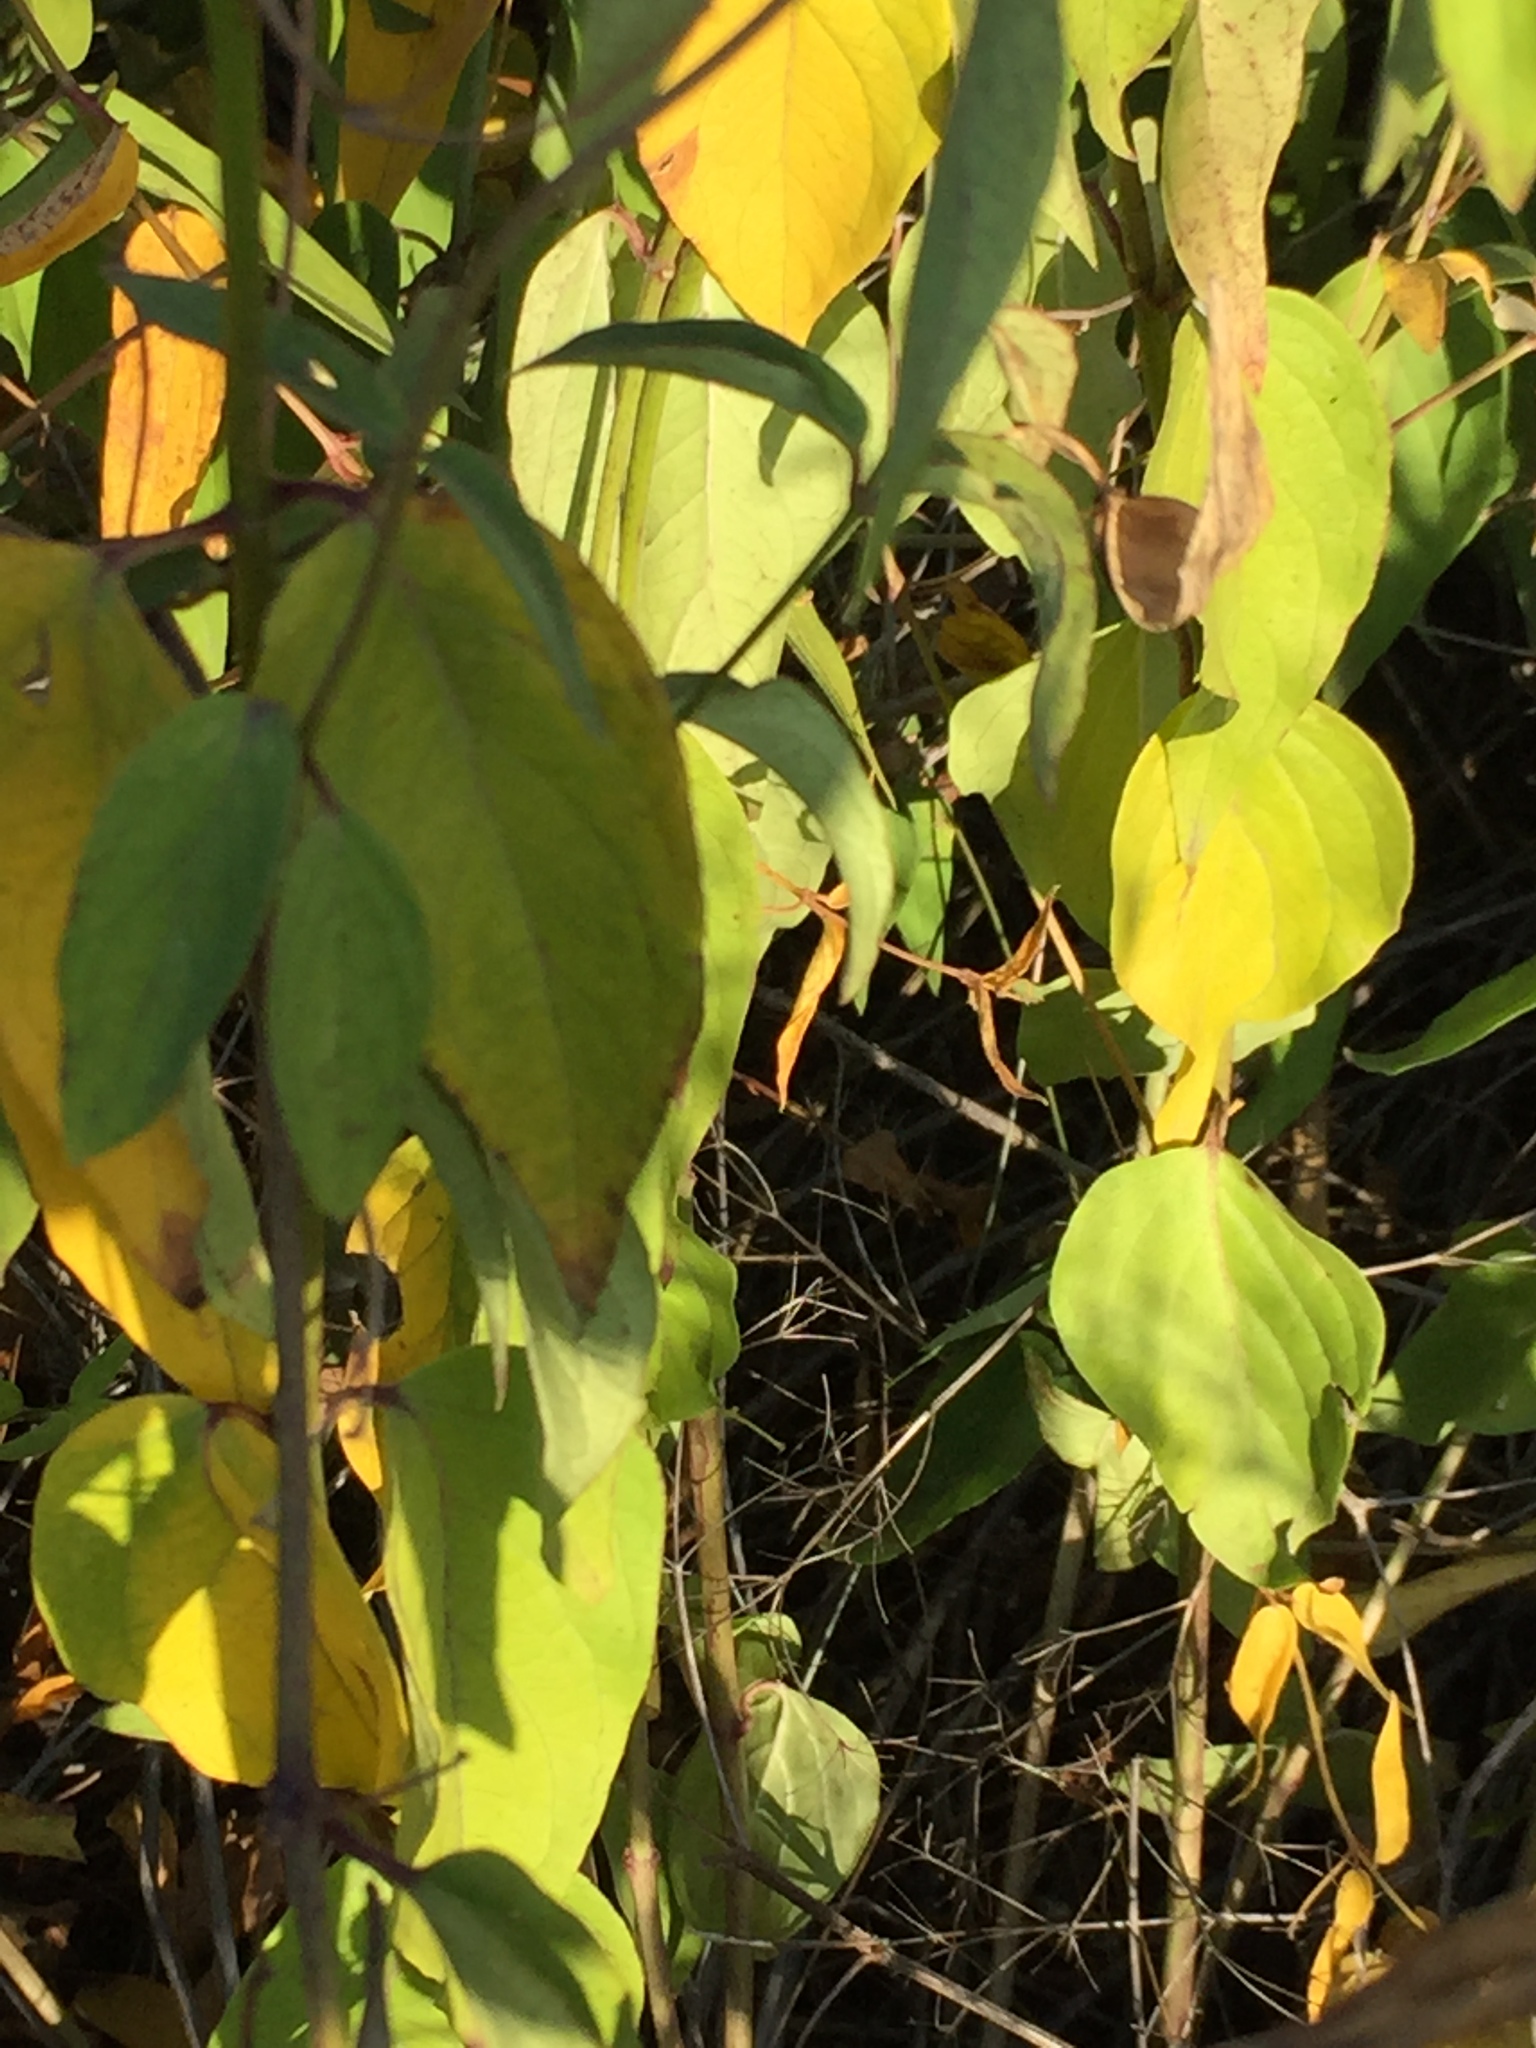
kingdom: Plantae
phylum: Tracheophyta
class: Magnoliopsida
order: Gentianales
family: Apocynaceae
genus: Vincetoxicum
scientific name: Vincetoxicum hirundinaria
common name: White swallowwort
